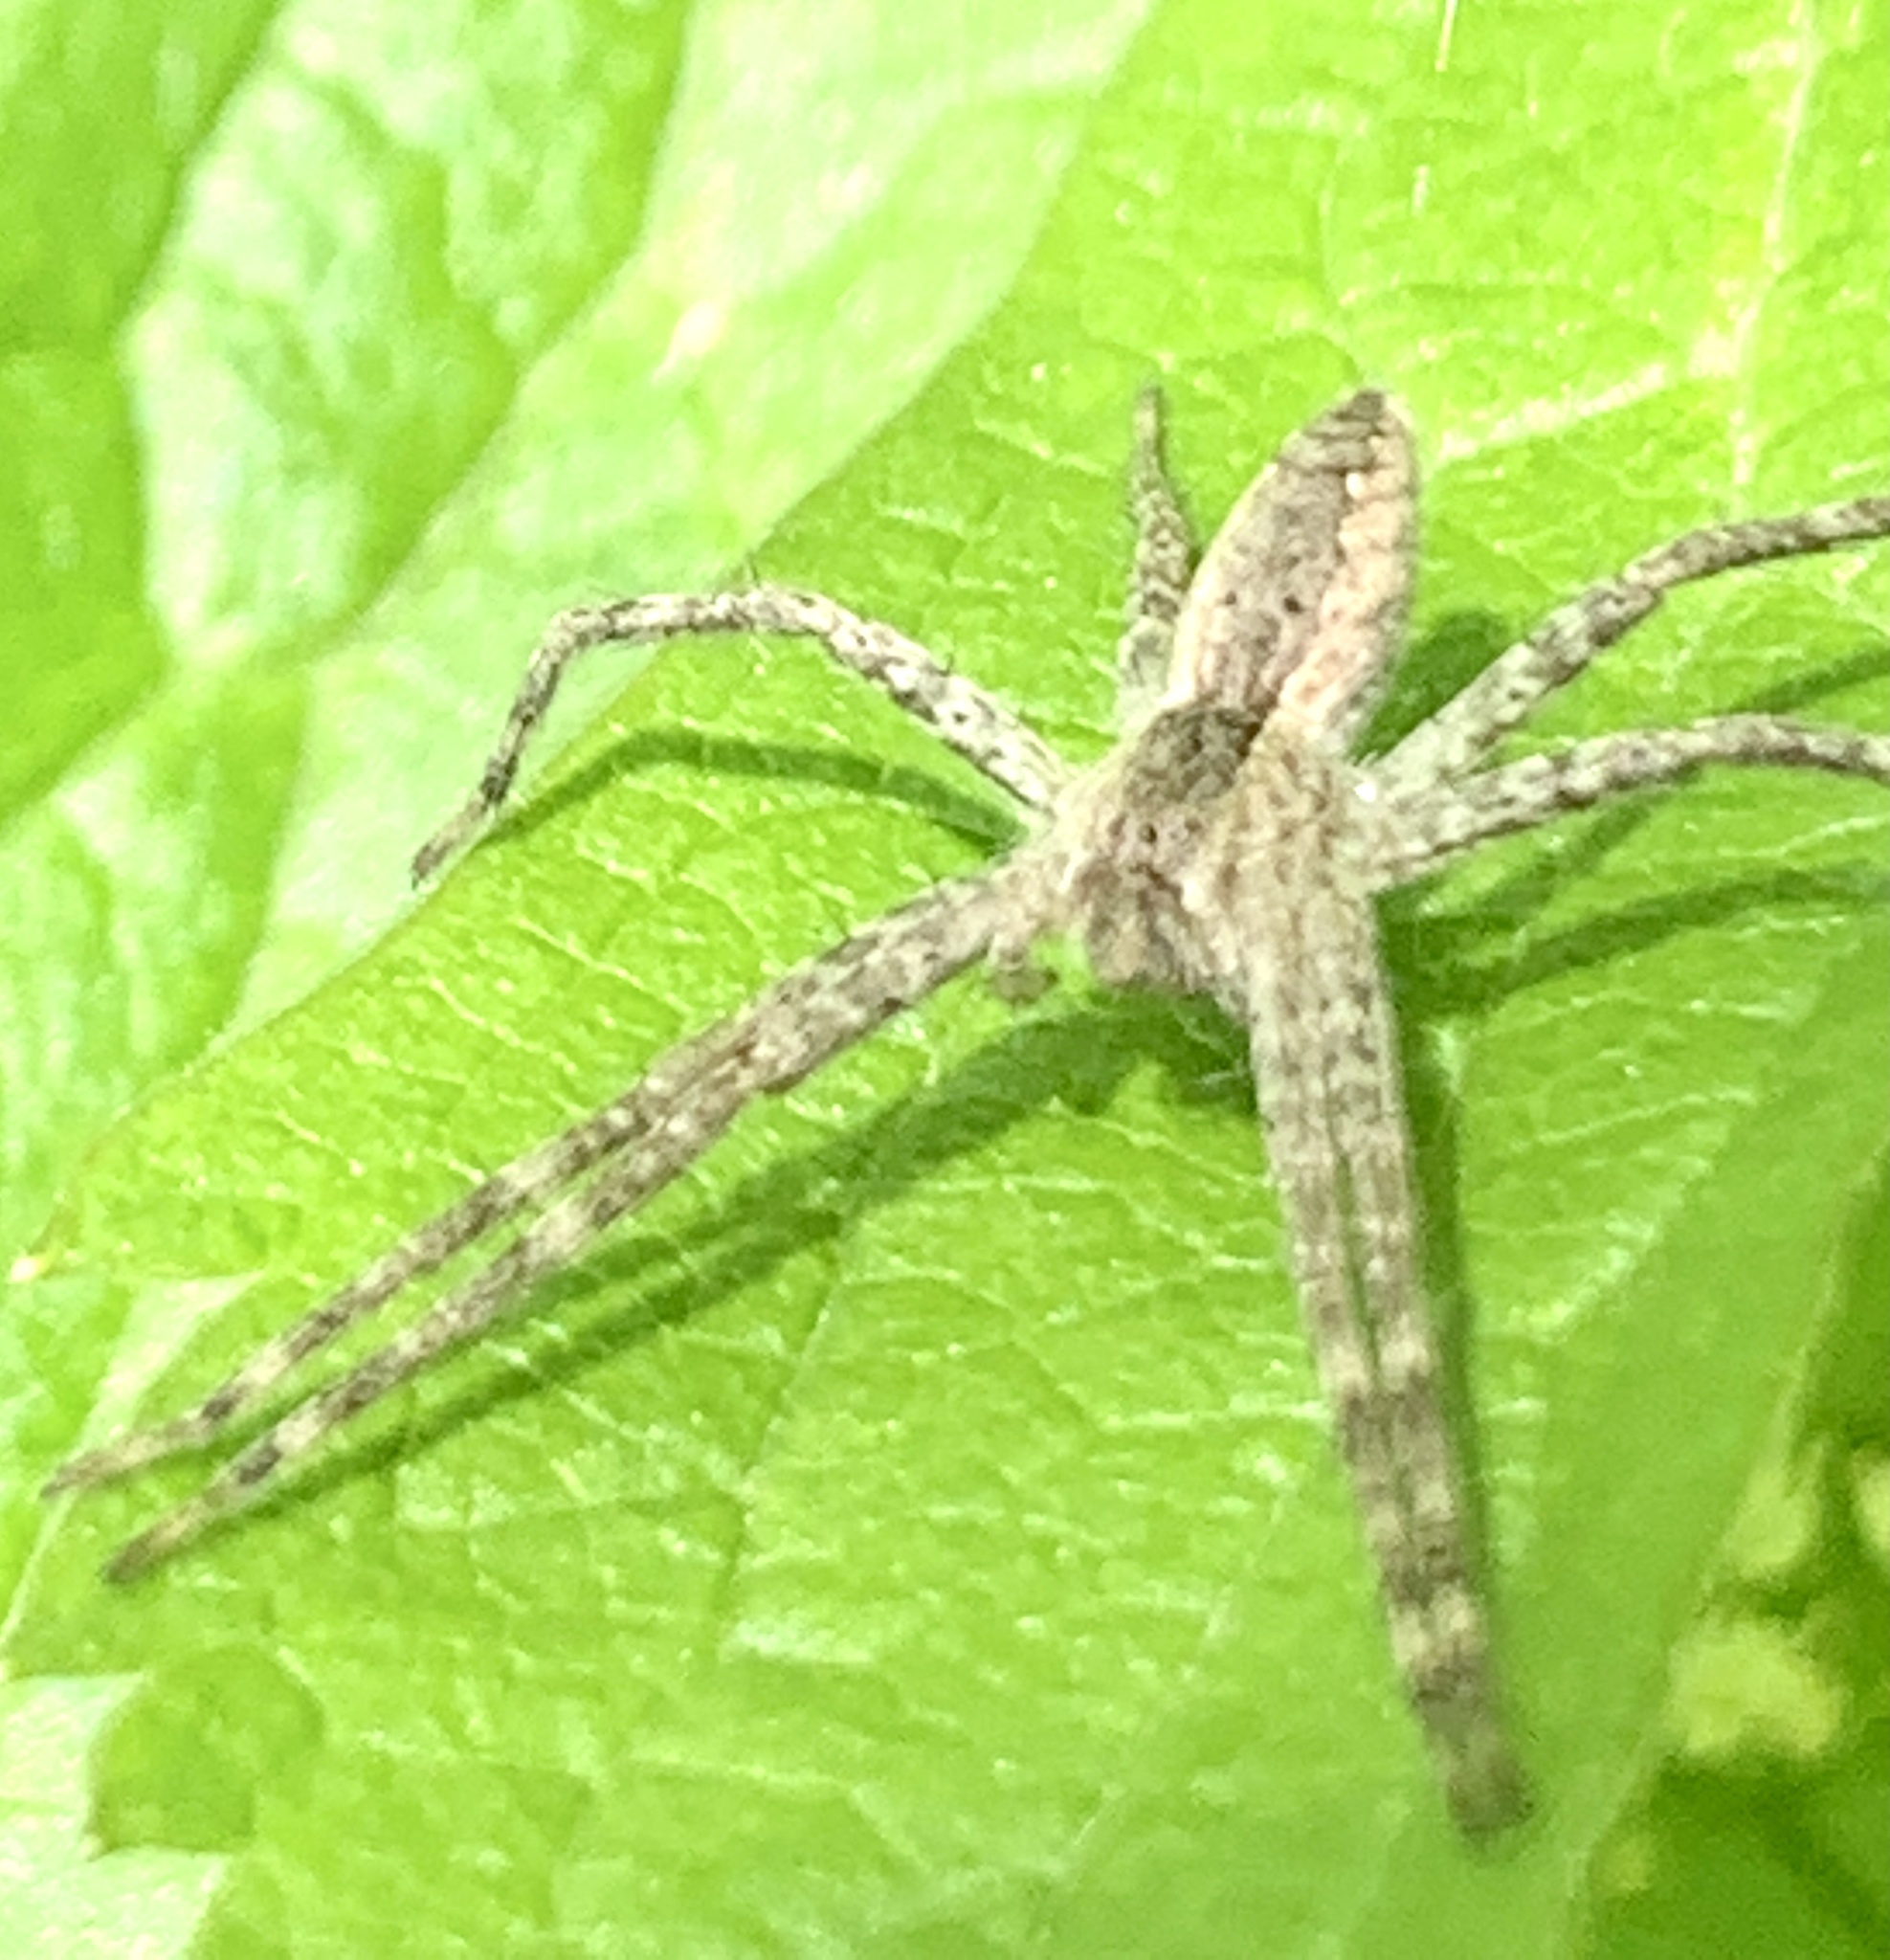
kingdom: Animalia
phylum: Arthropoda
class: Arachnida
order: Araneae
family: Pisauridae
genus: Pisaurina
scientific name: Pisaurina mira
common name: American nursery web spider
